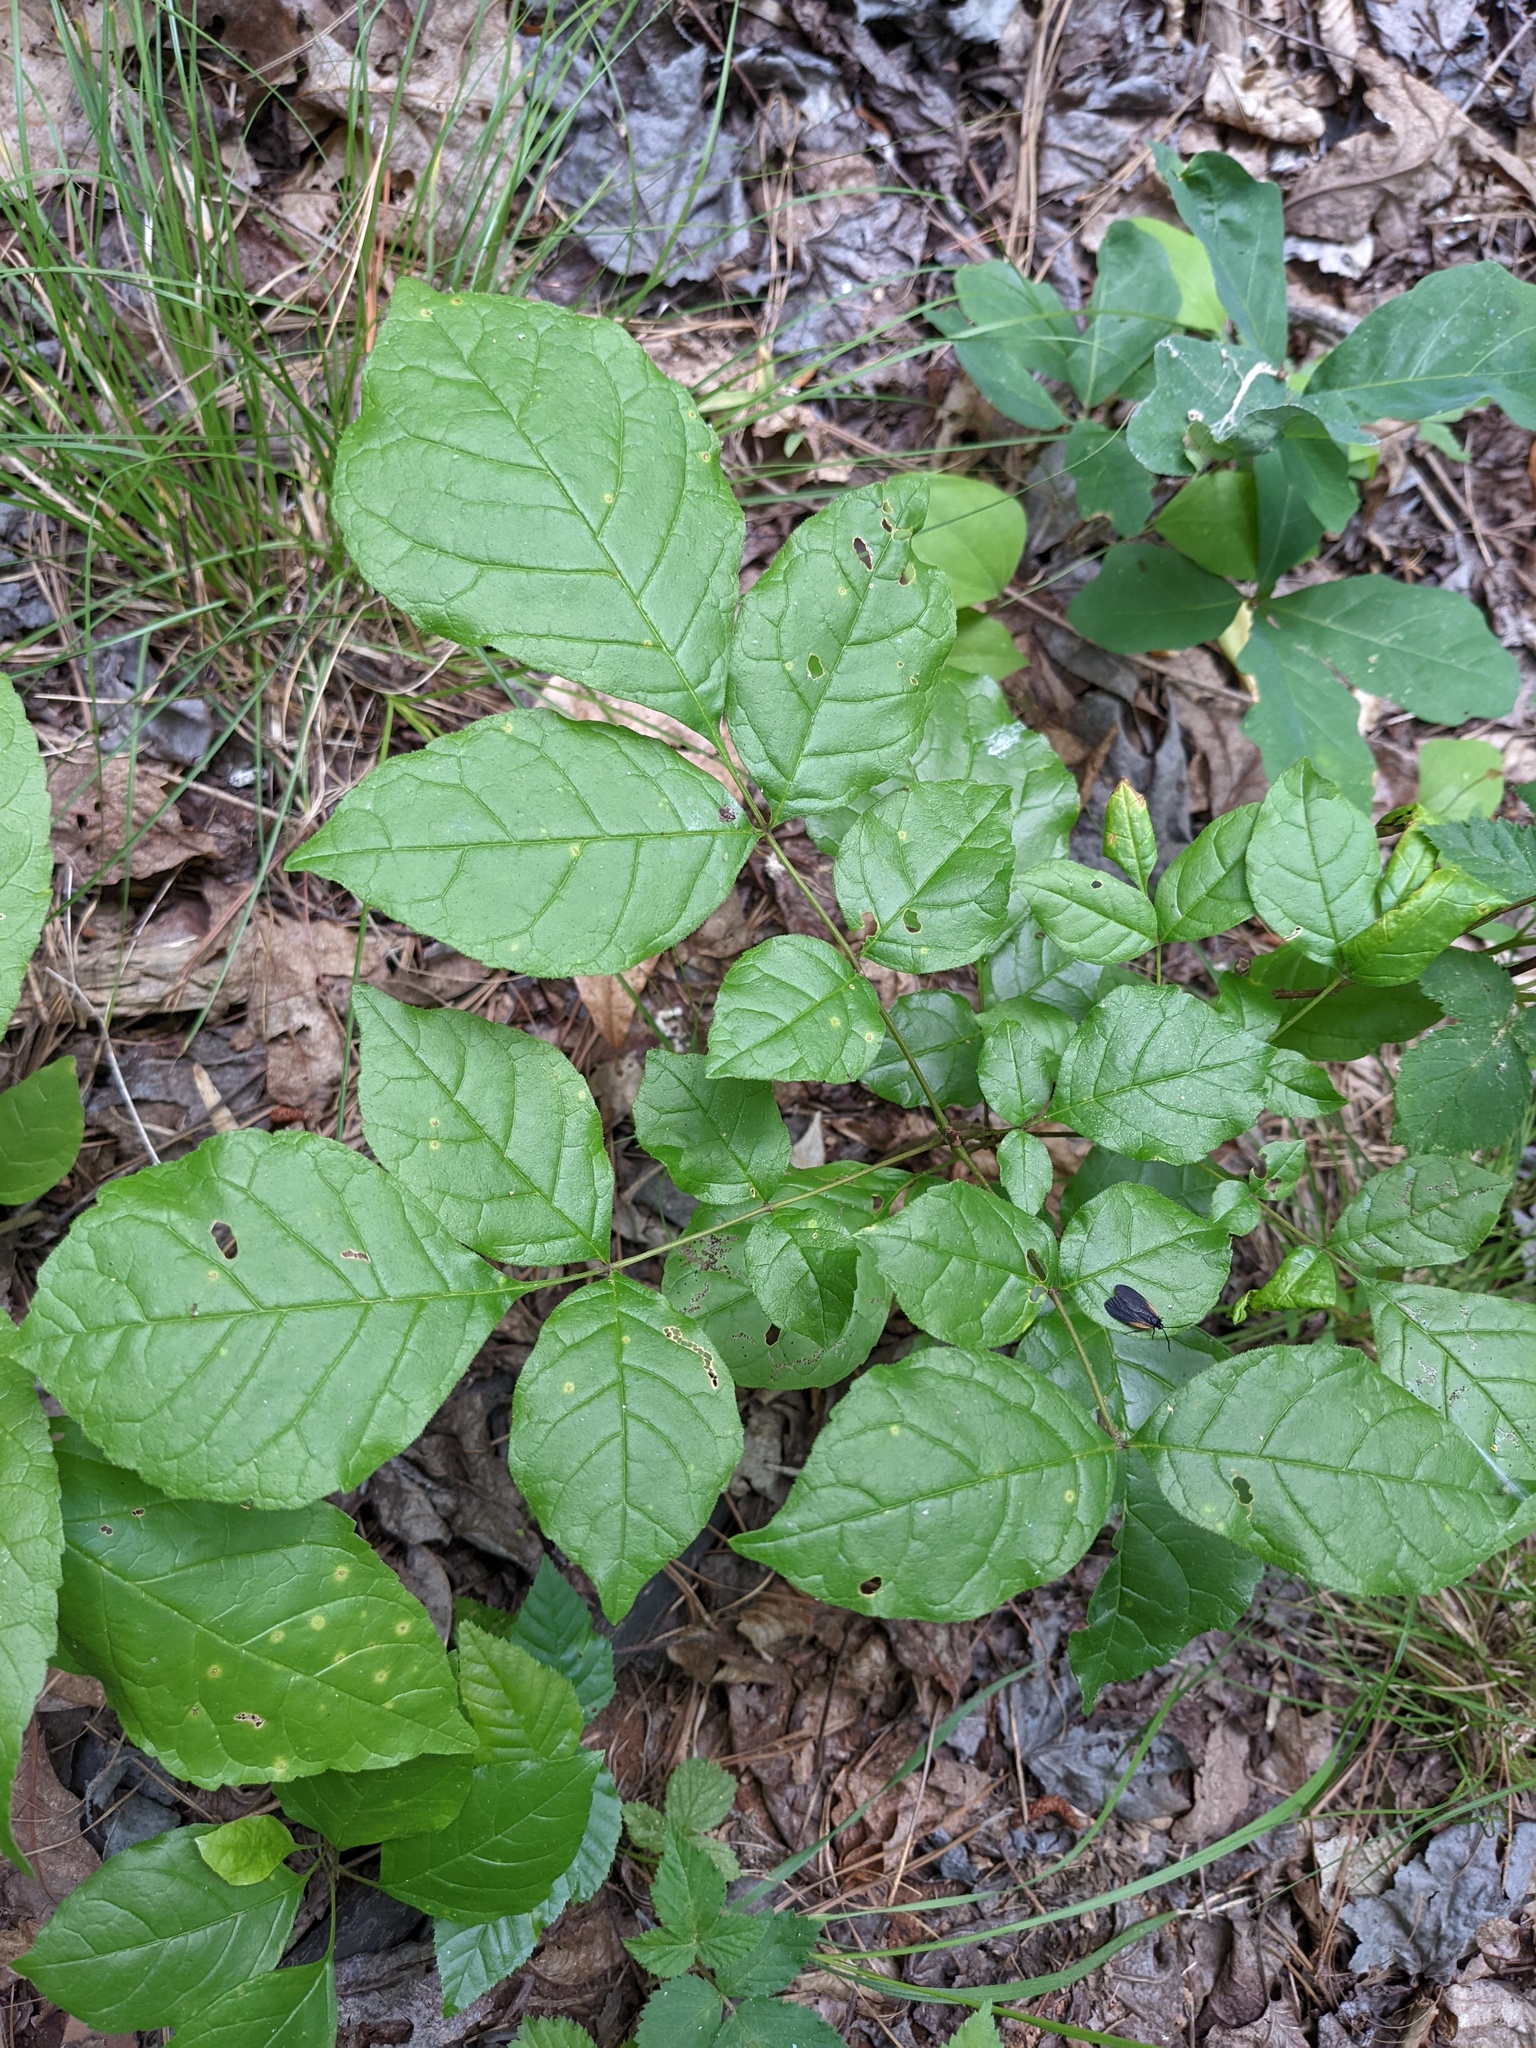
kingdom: Plantae
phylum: Tracheophyta
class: Magnoliopsida
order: Lamiales
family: Oleaceae
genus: Fraxinus
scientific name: Fraxinus americana
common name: White ash
